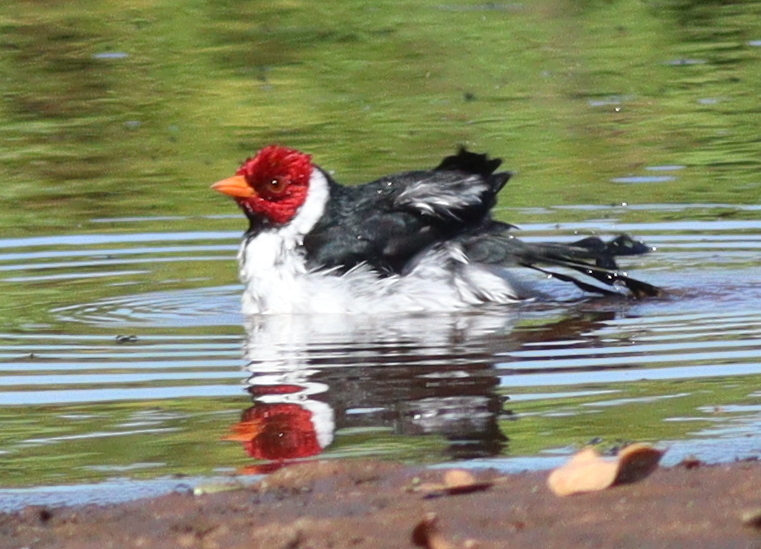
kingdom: Animalia
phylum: Chordata
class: Aves
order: Passeriformes
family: Thraupidae
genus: Paroaria
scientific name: Paroaria capitata
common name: Yellow-billed cardinal
